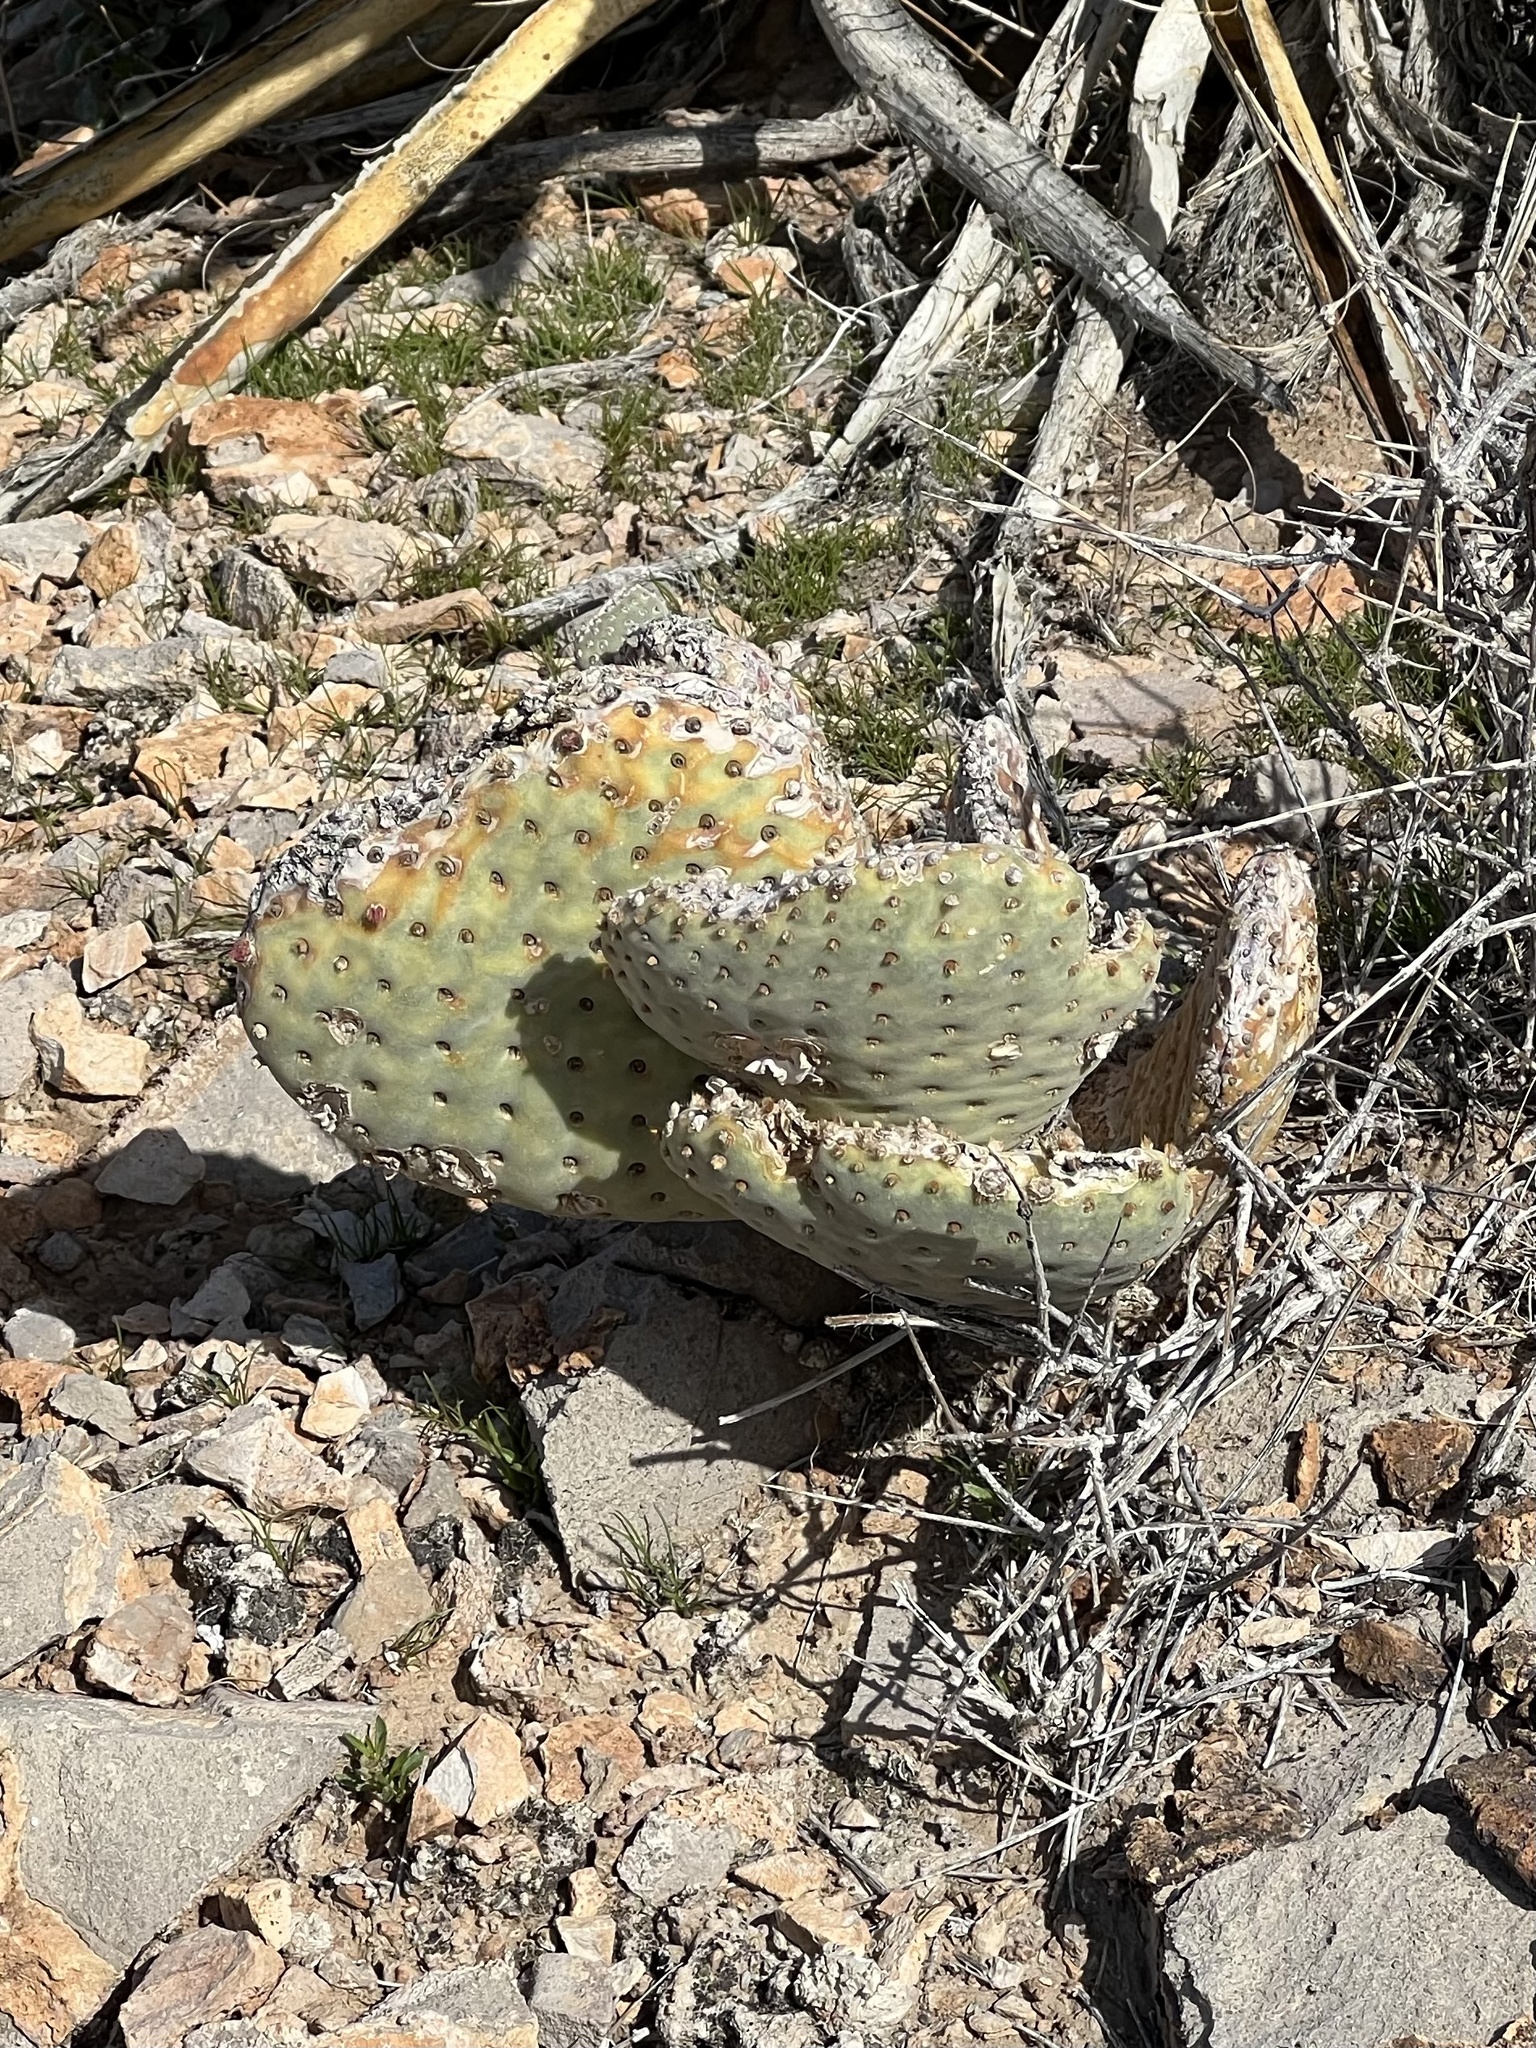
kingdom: Plantae
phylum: Tracheophyta
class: Magnoliopsida
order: Caryophyllales
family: Cactaceae
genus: Opuntia
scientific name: Opuntia basilaris
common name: Beavertail prickly-pear
